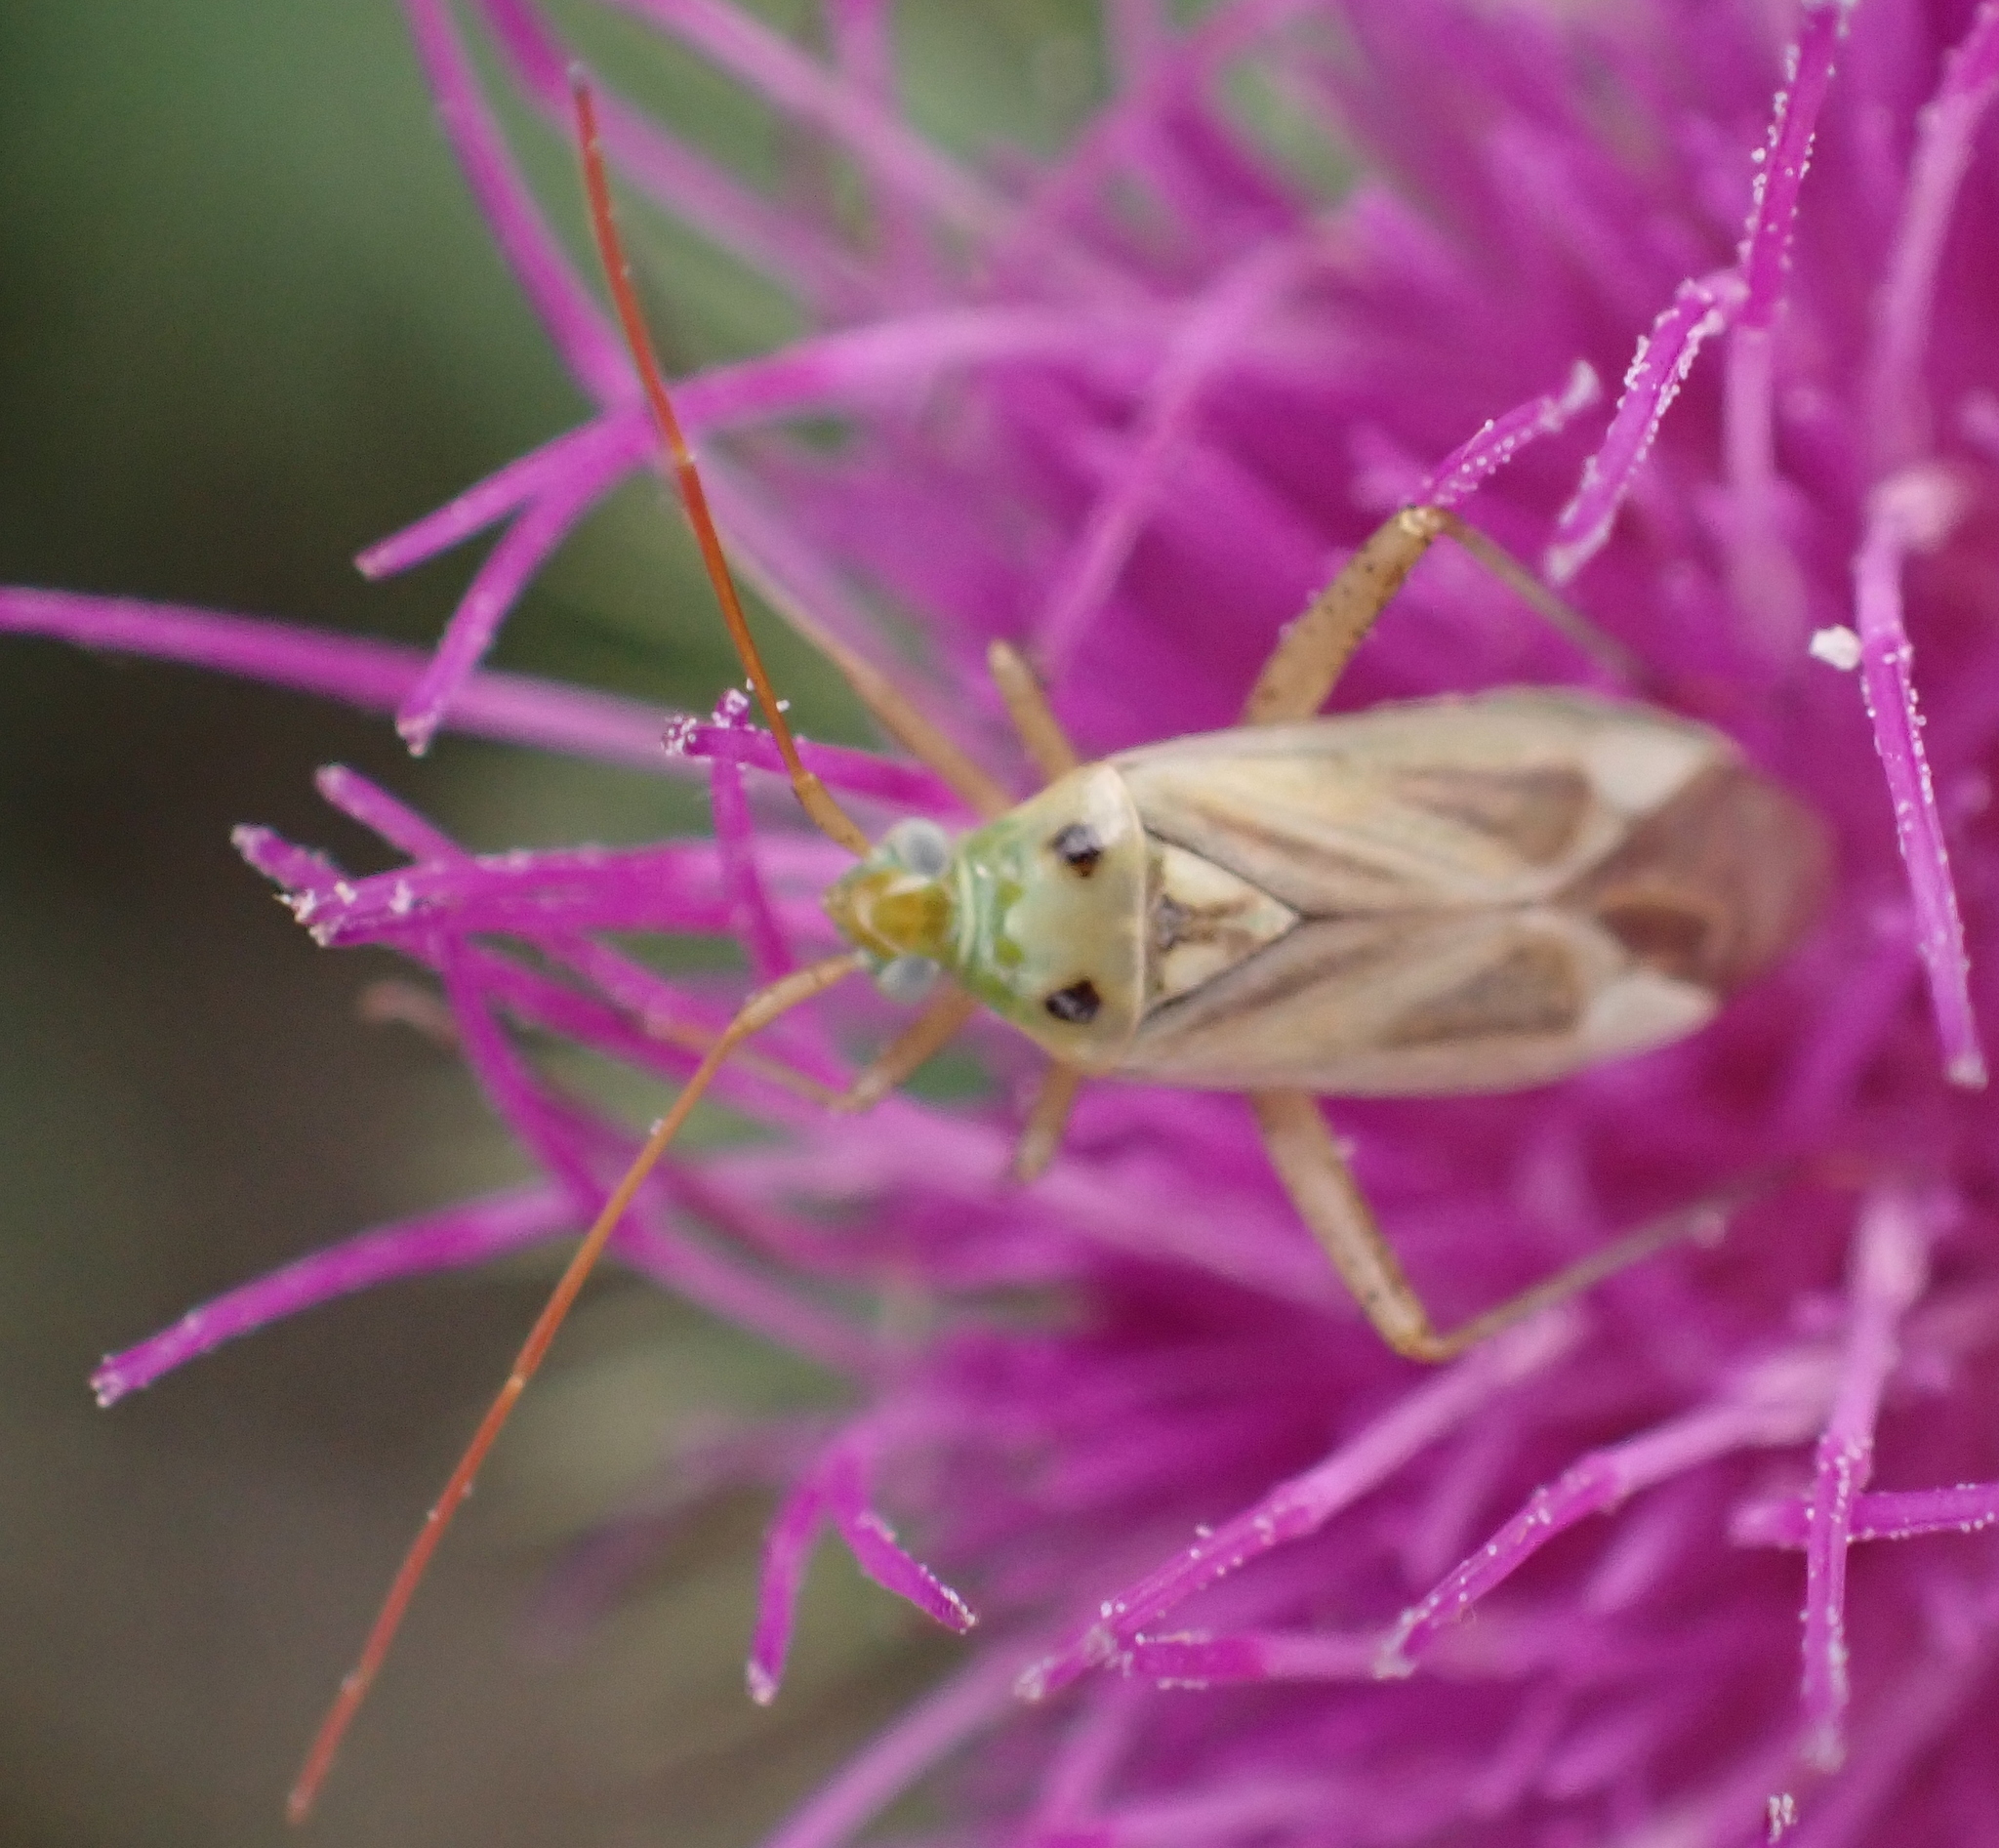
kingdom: Animalia
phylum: Arthropoda
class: Insecta
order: Hemiptera
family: Miridae
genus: Adelphocoris
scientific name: Adelphocoris lineolatus
